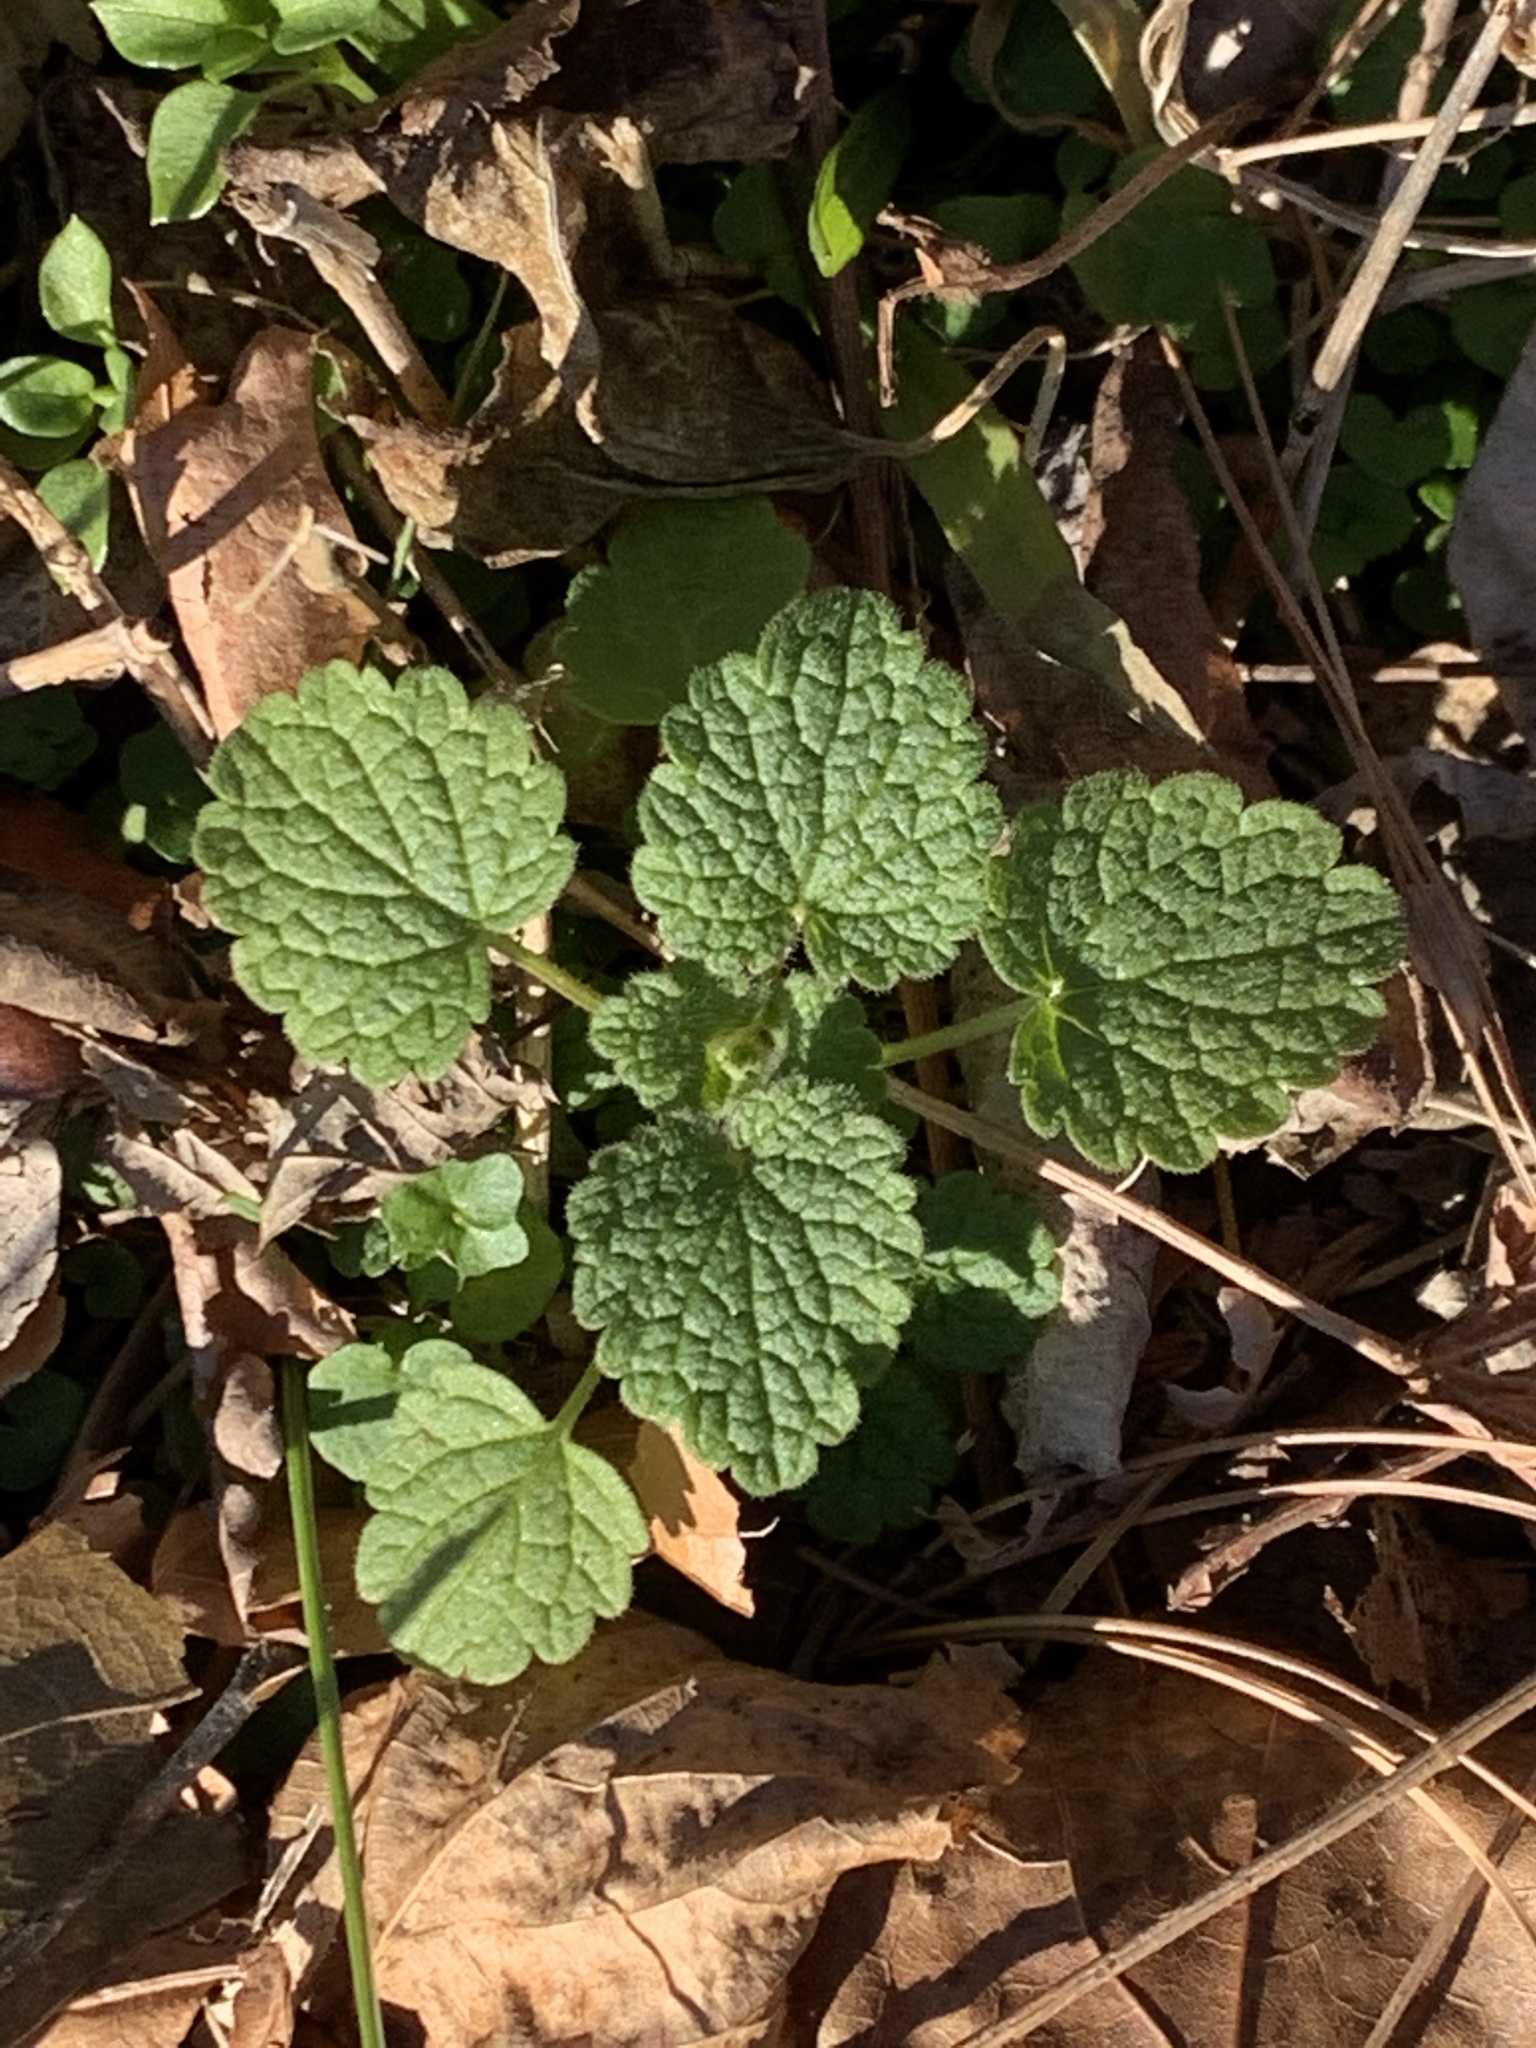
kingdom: Plantae
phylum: Tracheophyta
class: Magnoliopsida
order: Lamiales
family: Lamiaceae
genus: Lamium
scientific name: Lamium purpureum
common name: Red dead-nettle
